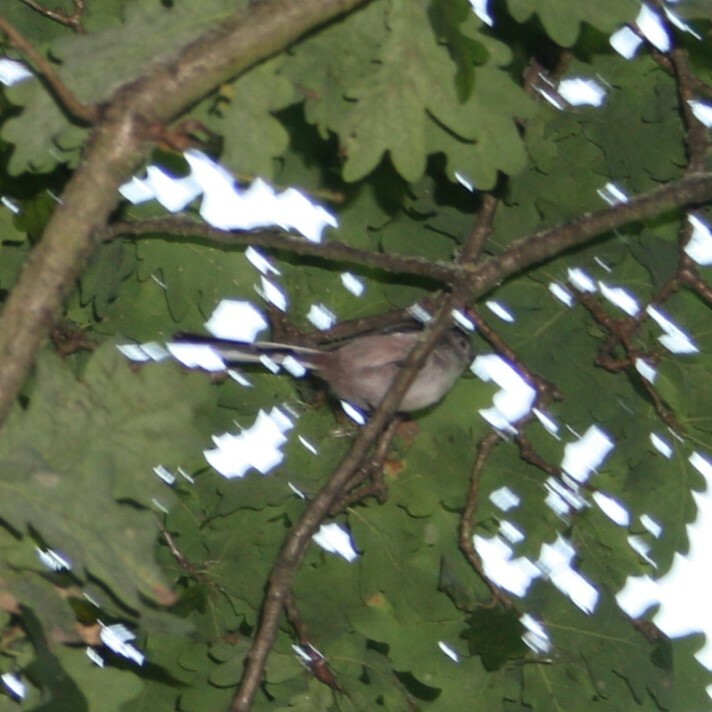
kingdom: Animalia
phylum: Chordata
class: Aves
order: Passeriformes
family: Aegithalidae
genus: Aegithalos
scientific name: Aegithalos caudatus
